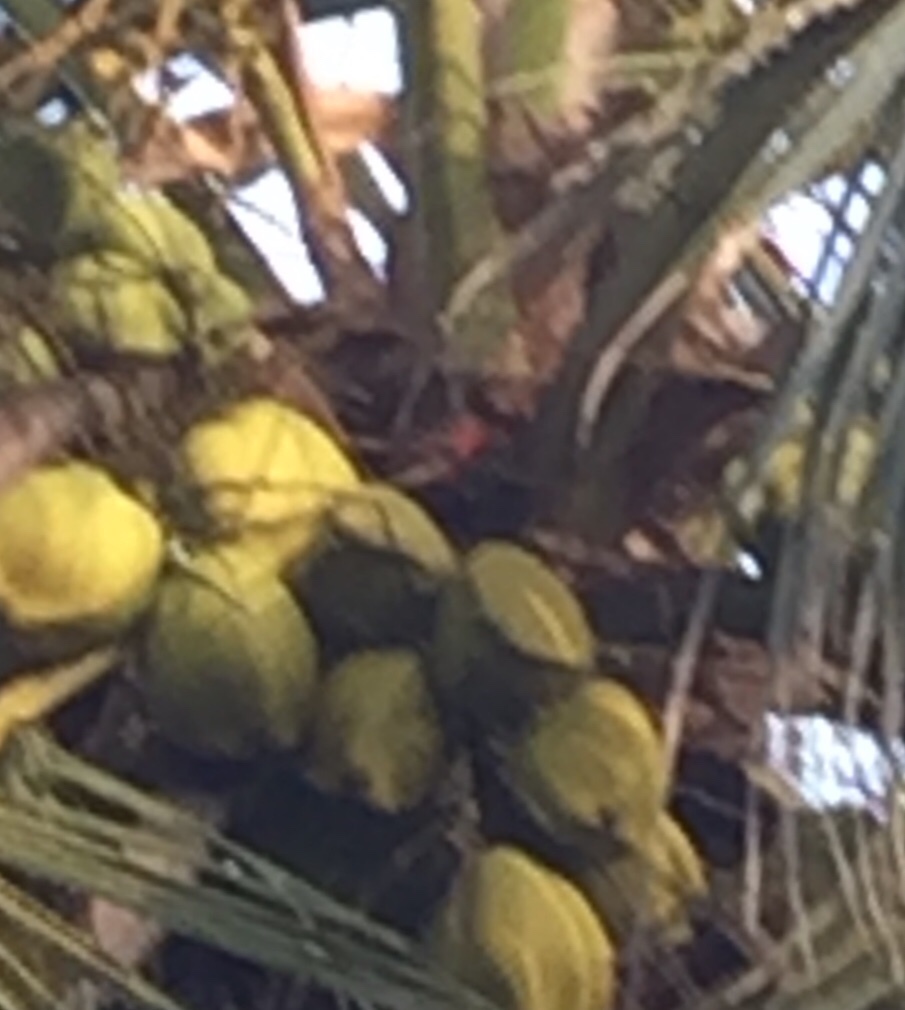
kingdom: Animalia
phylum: Chordata
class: Aves
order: Piciformes
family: Picidae
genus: Dinopium
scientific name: Dinopium psarodes
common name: Red-backed flameback
